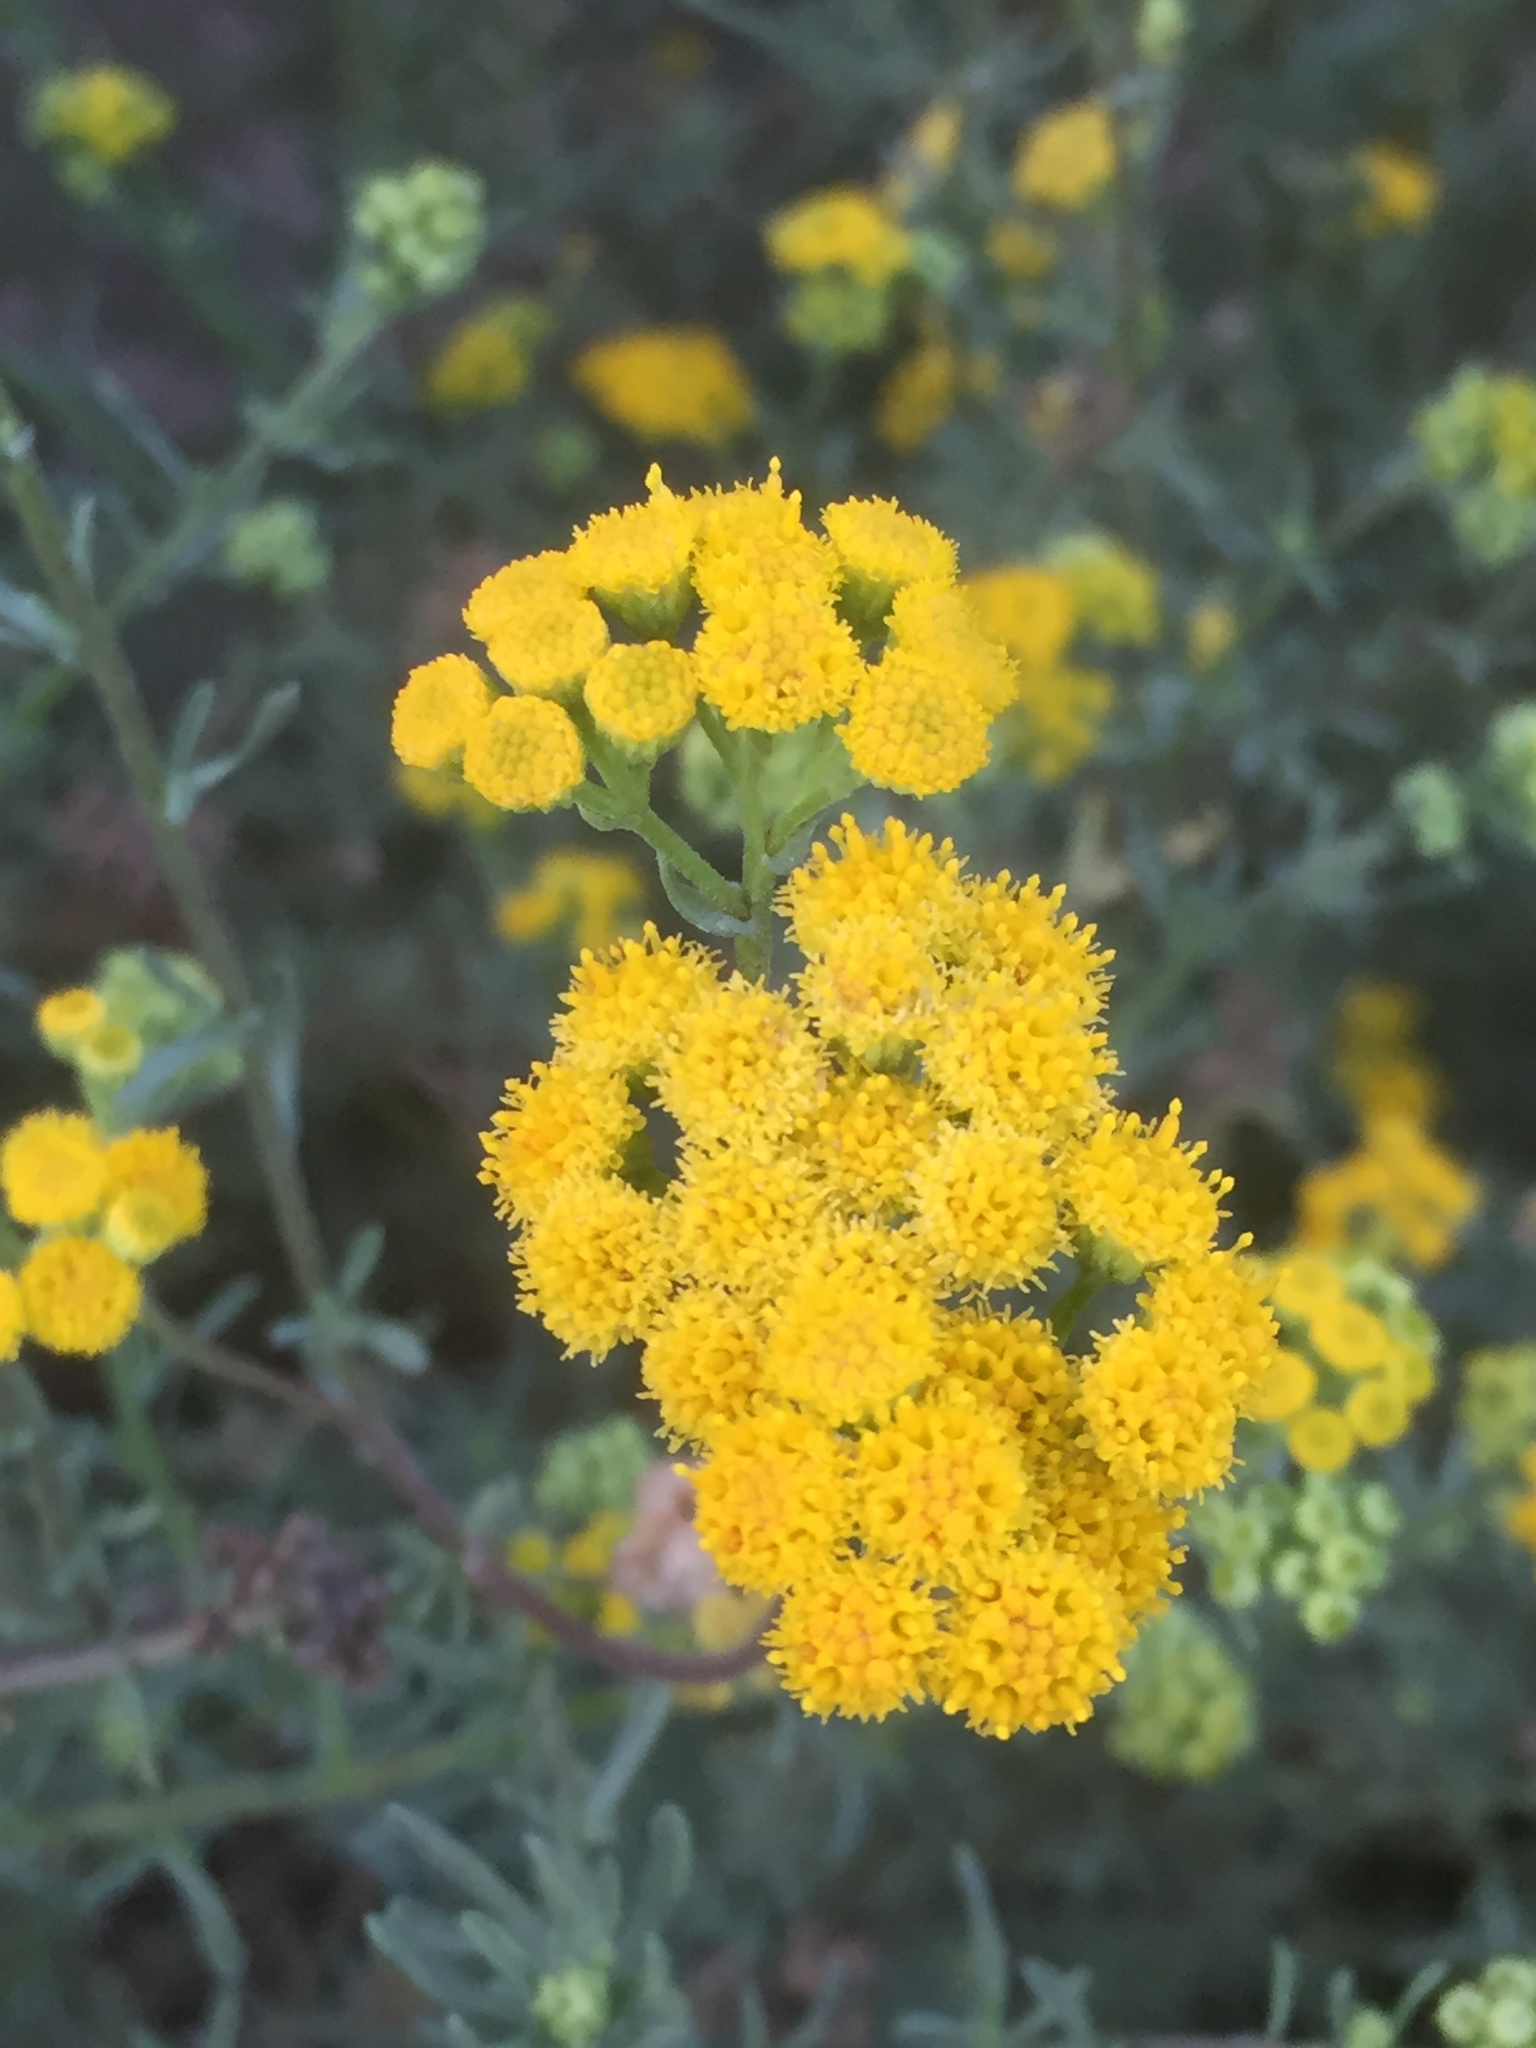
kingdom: Plantae
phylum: Tracheophyta
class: Magnoliopsida
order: Asterales
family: Asteraceae
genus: Nidorella
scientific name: Nidorella foetida
